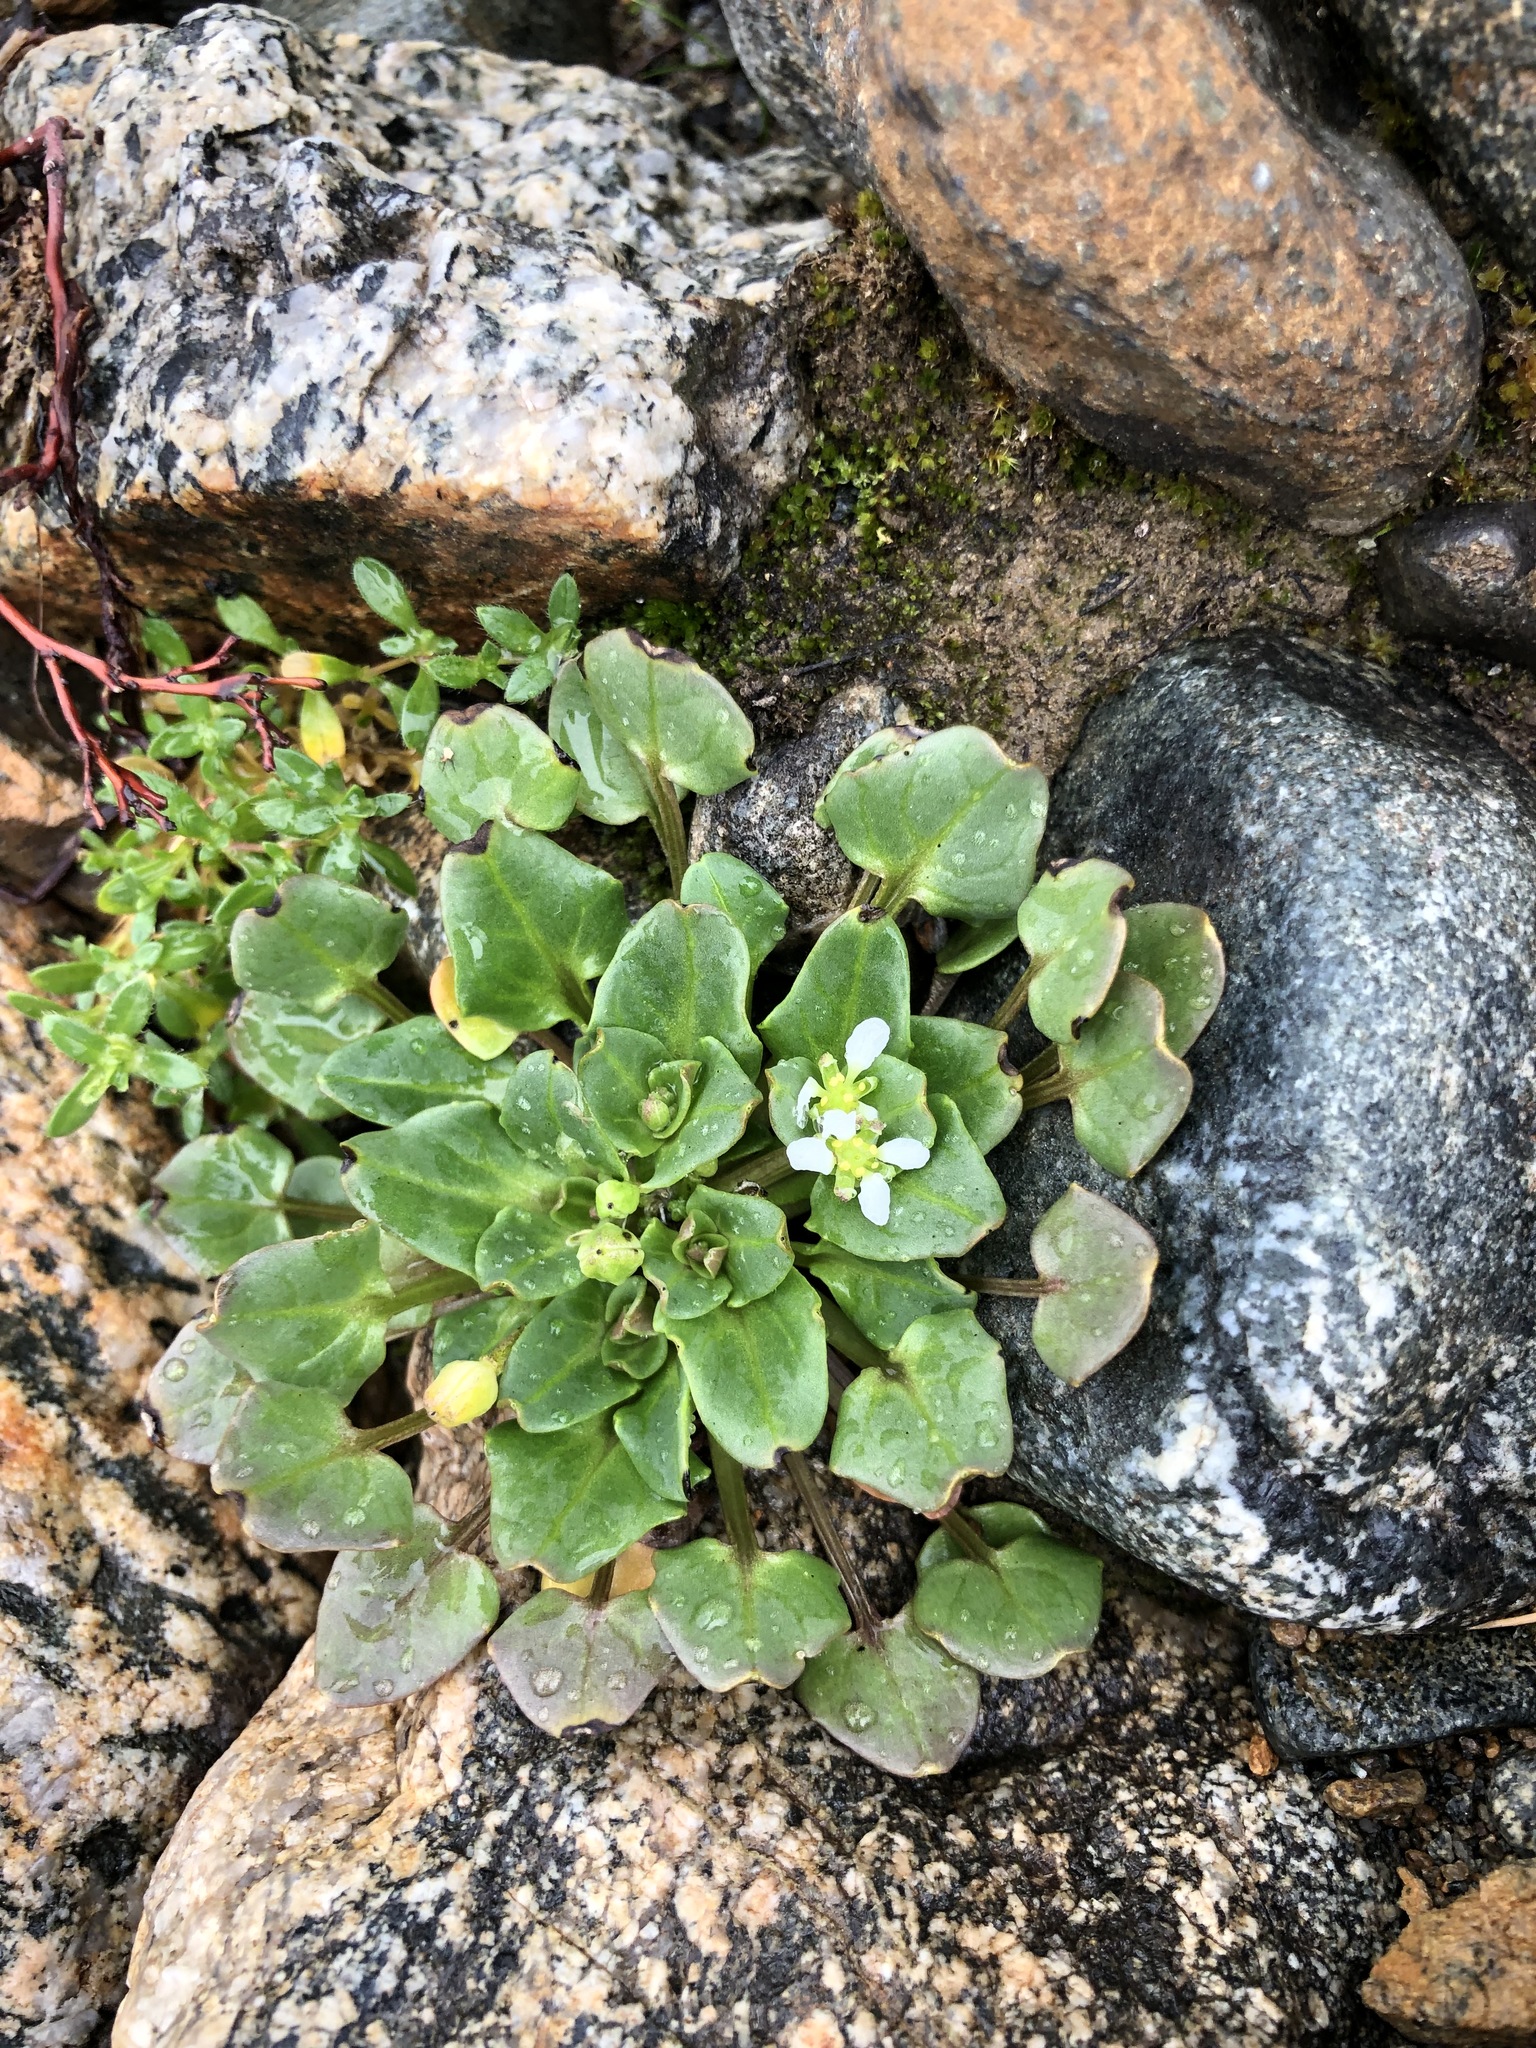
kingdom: Plantae
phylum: Tracheophyta
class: Magnoliopsida
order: Brassicales
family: Brassicaceae
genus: Cochlearia
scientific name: Cochlearia groenlandica
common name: Danish scurvygrass
